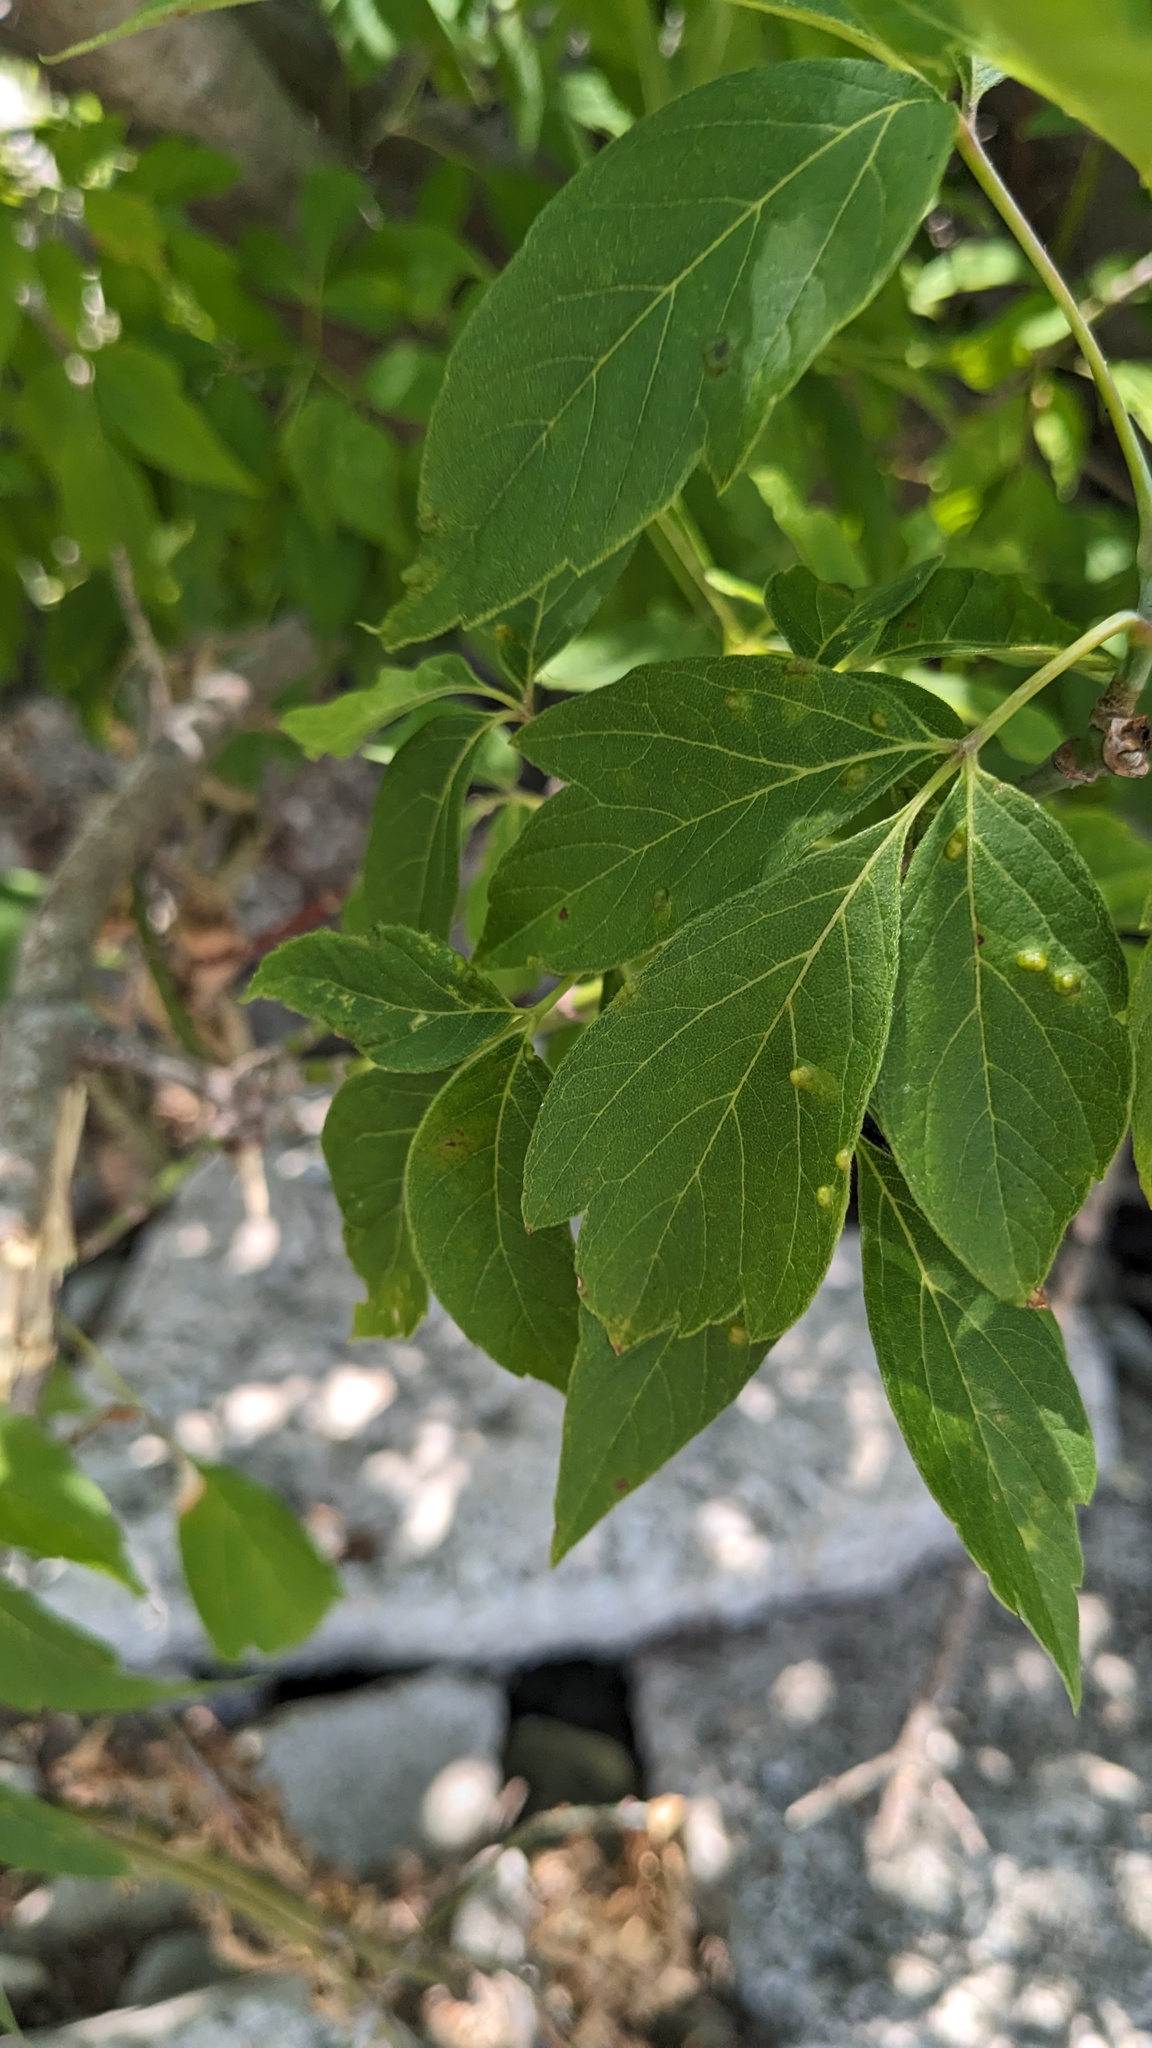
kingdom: Animalia
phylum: Arthropoda
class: Arachnida
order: Trombidiformes
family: Eriophyidae
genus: Aceria
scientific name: Aceria
